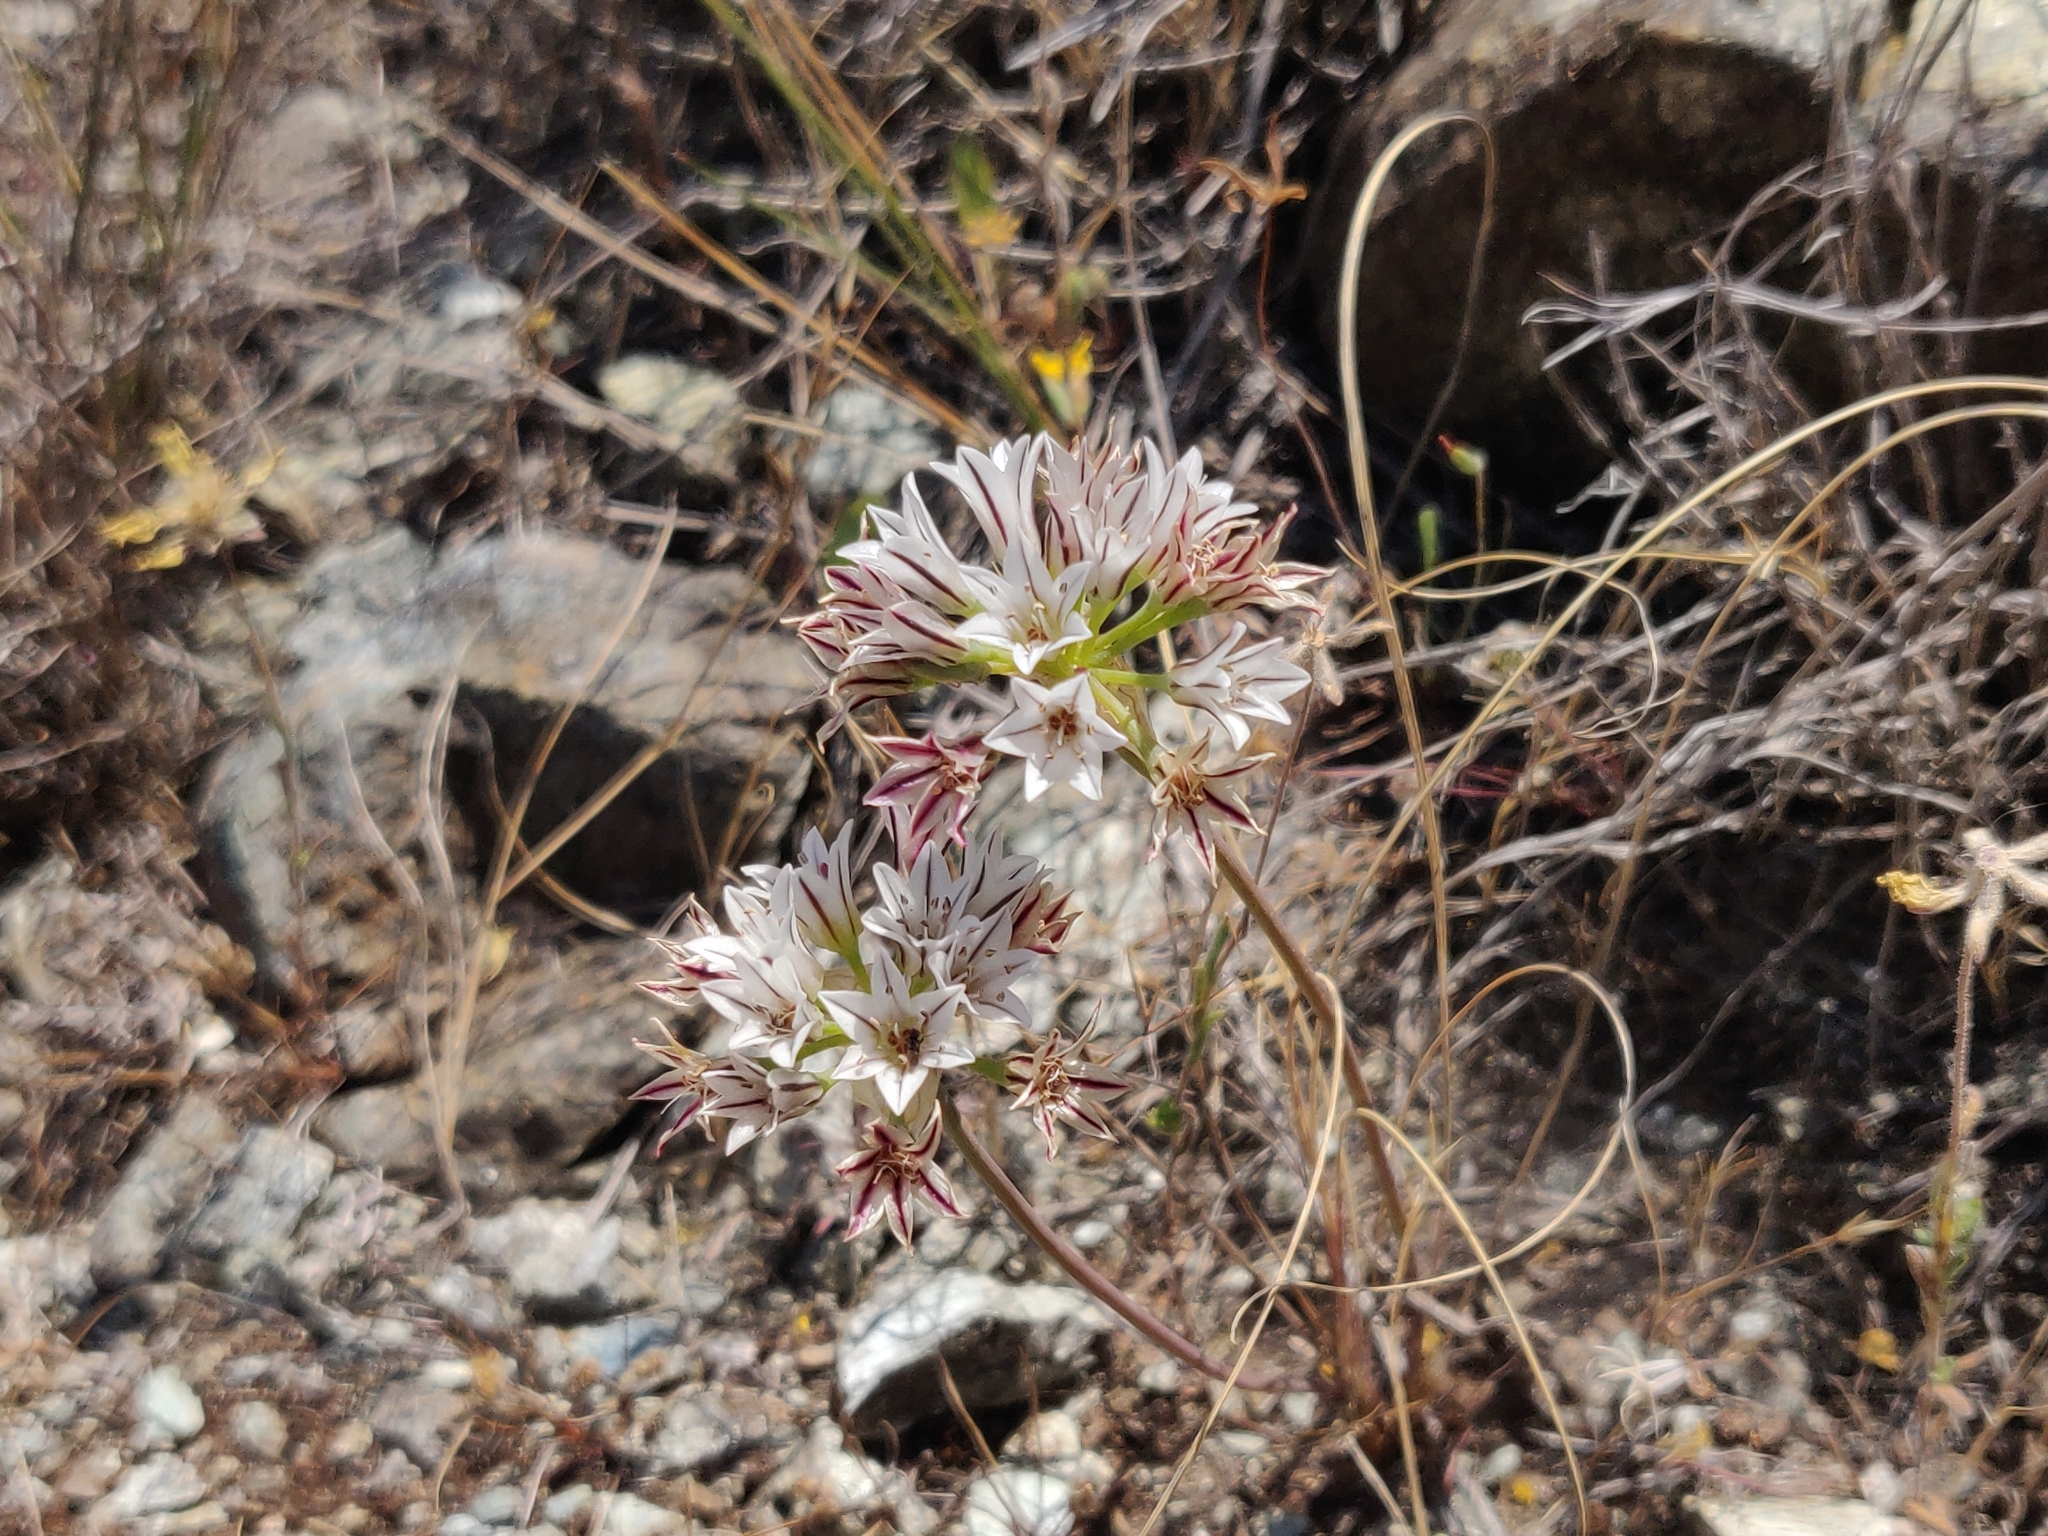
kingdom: Plantae
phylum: Tracheophyta
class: Liliopsida
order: Asparagales
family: Amaryllidaceae
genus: Allium
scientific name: Allium lacunosum
